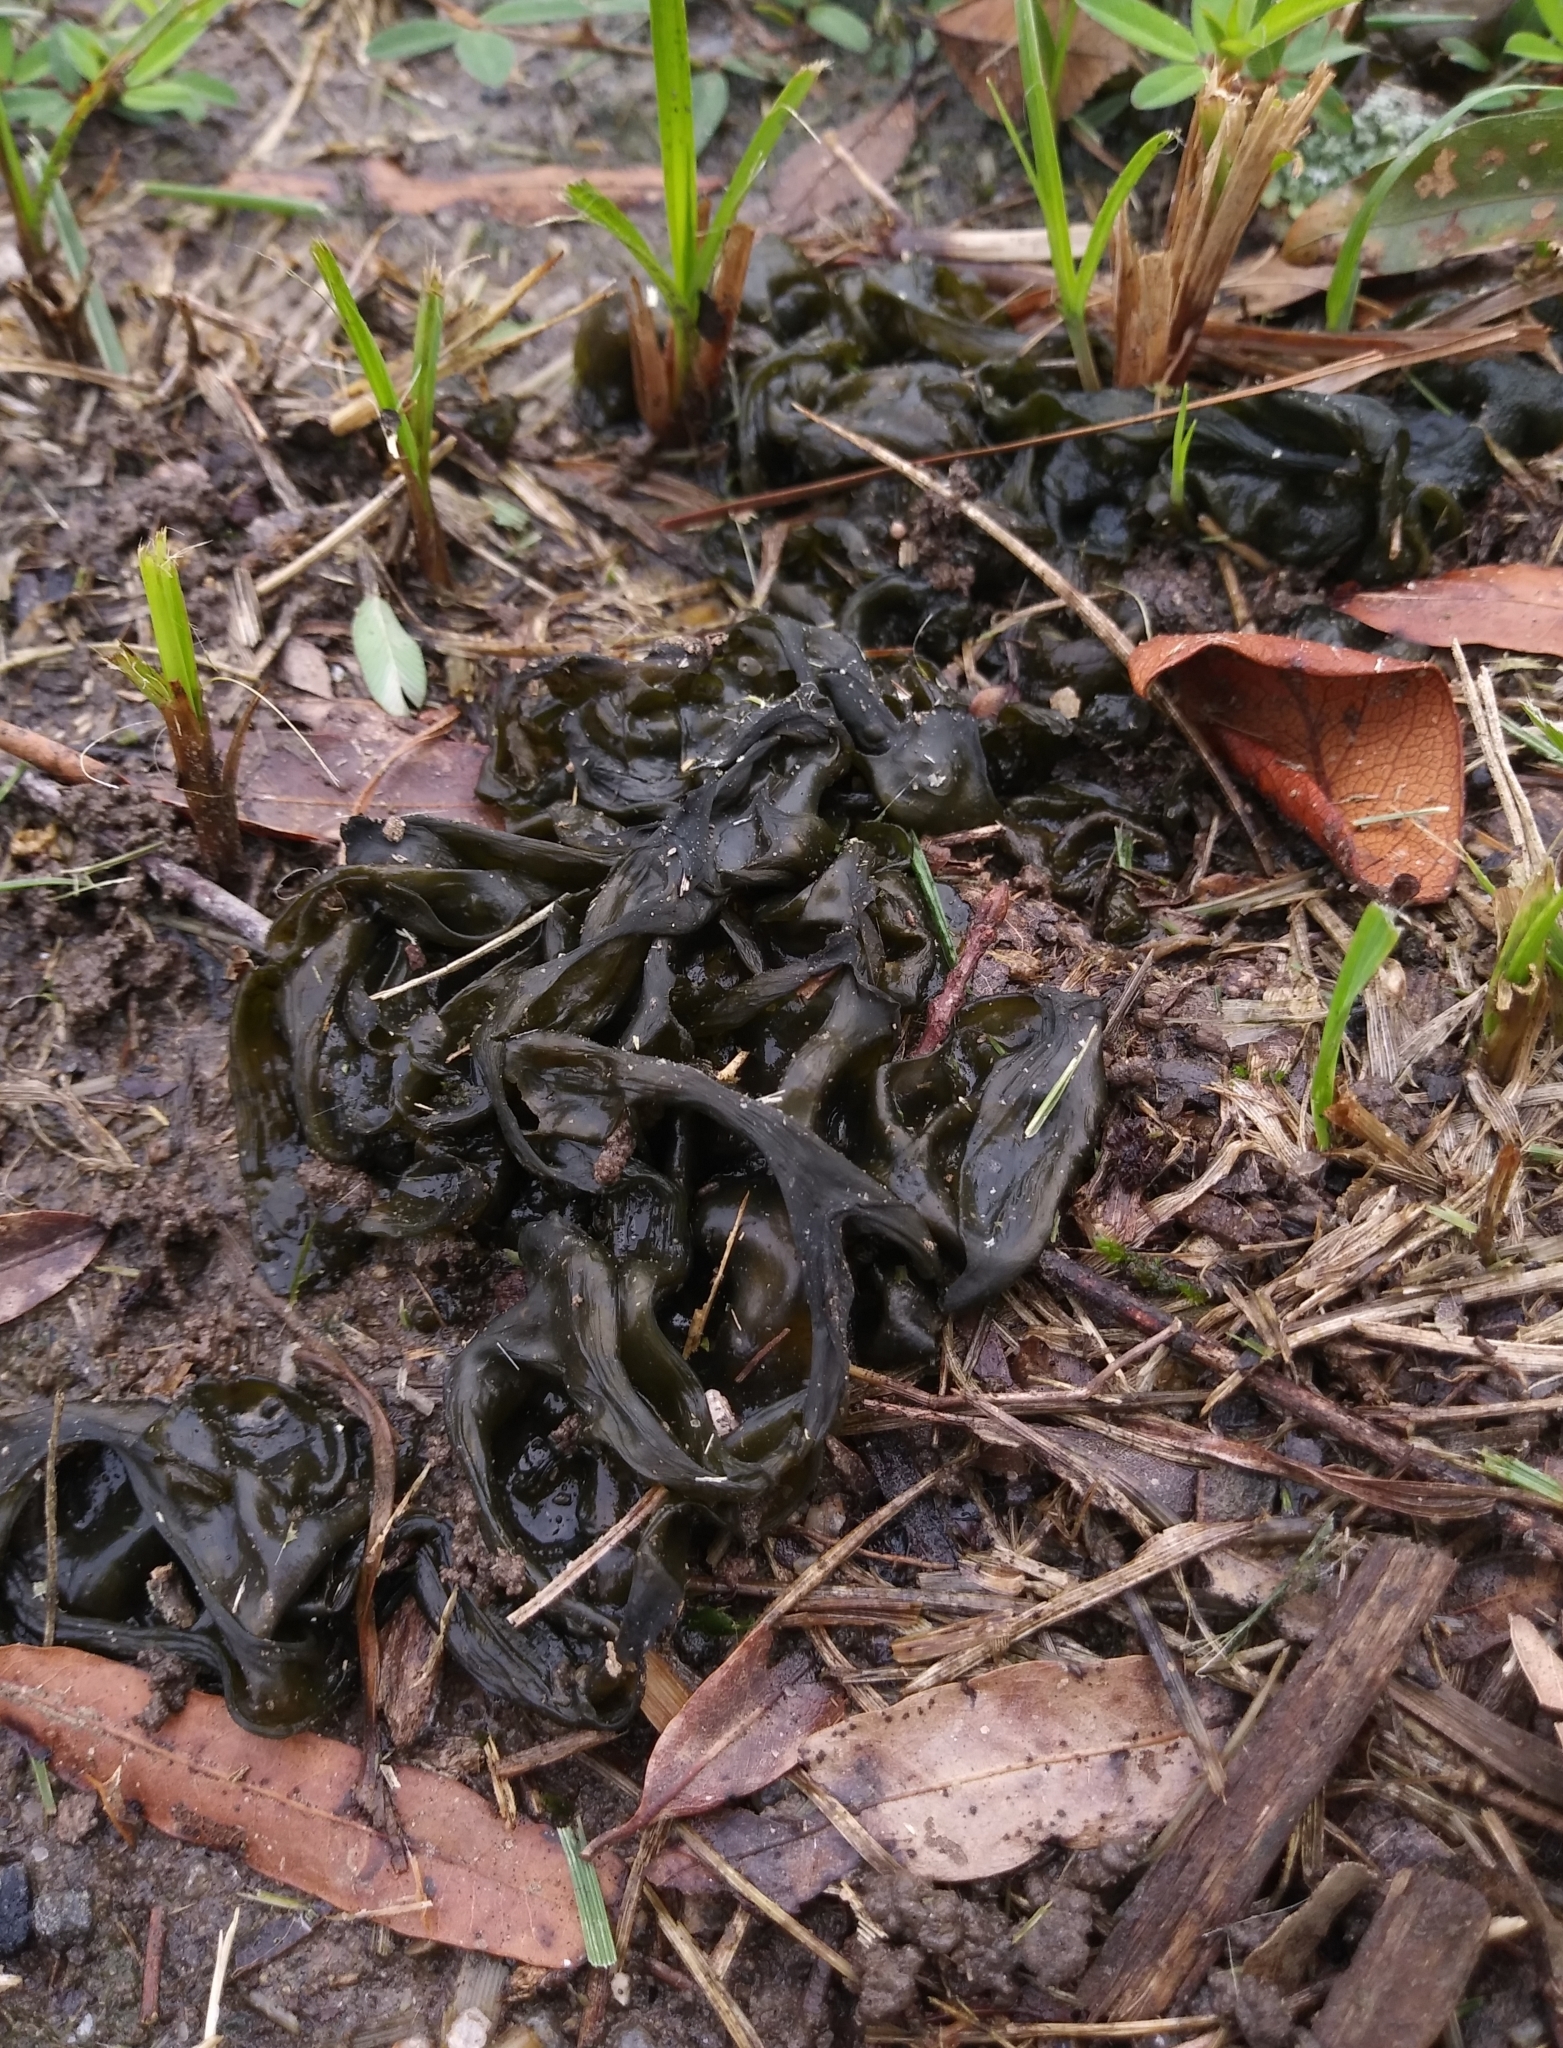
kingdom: Bacteria
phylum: Cyanobacteria
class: Cyanobacteriia
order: Cyanobacteriales
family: Nostocaceae
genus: Nostoc
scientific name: Nostoc commune
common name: Star jelly
